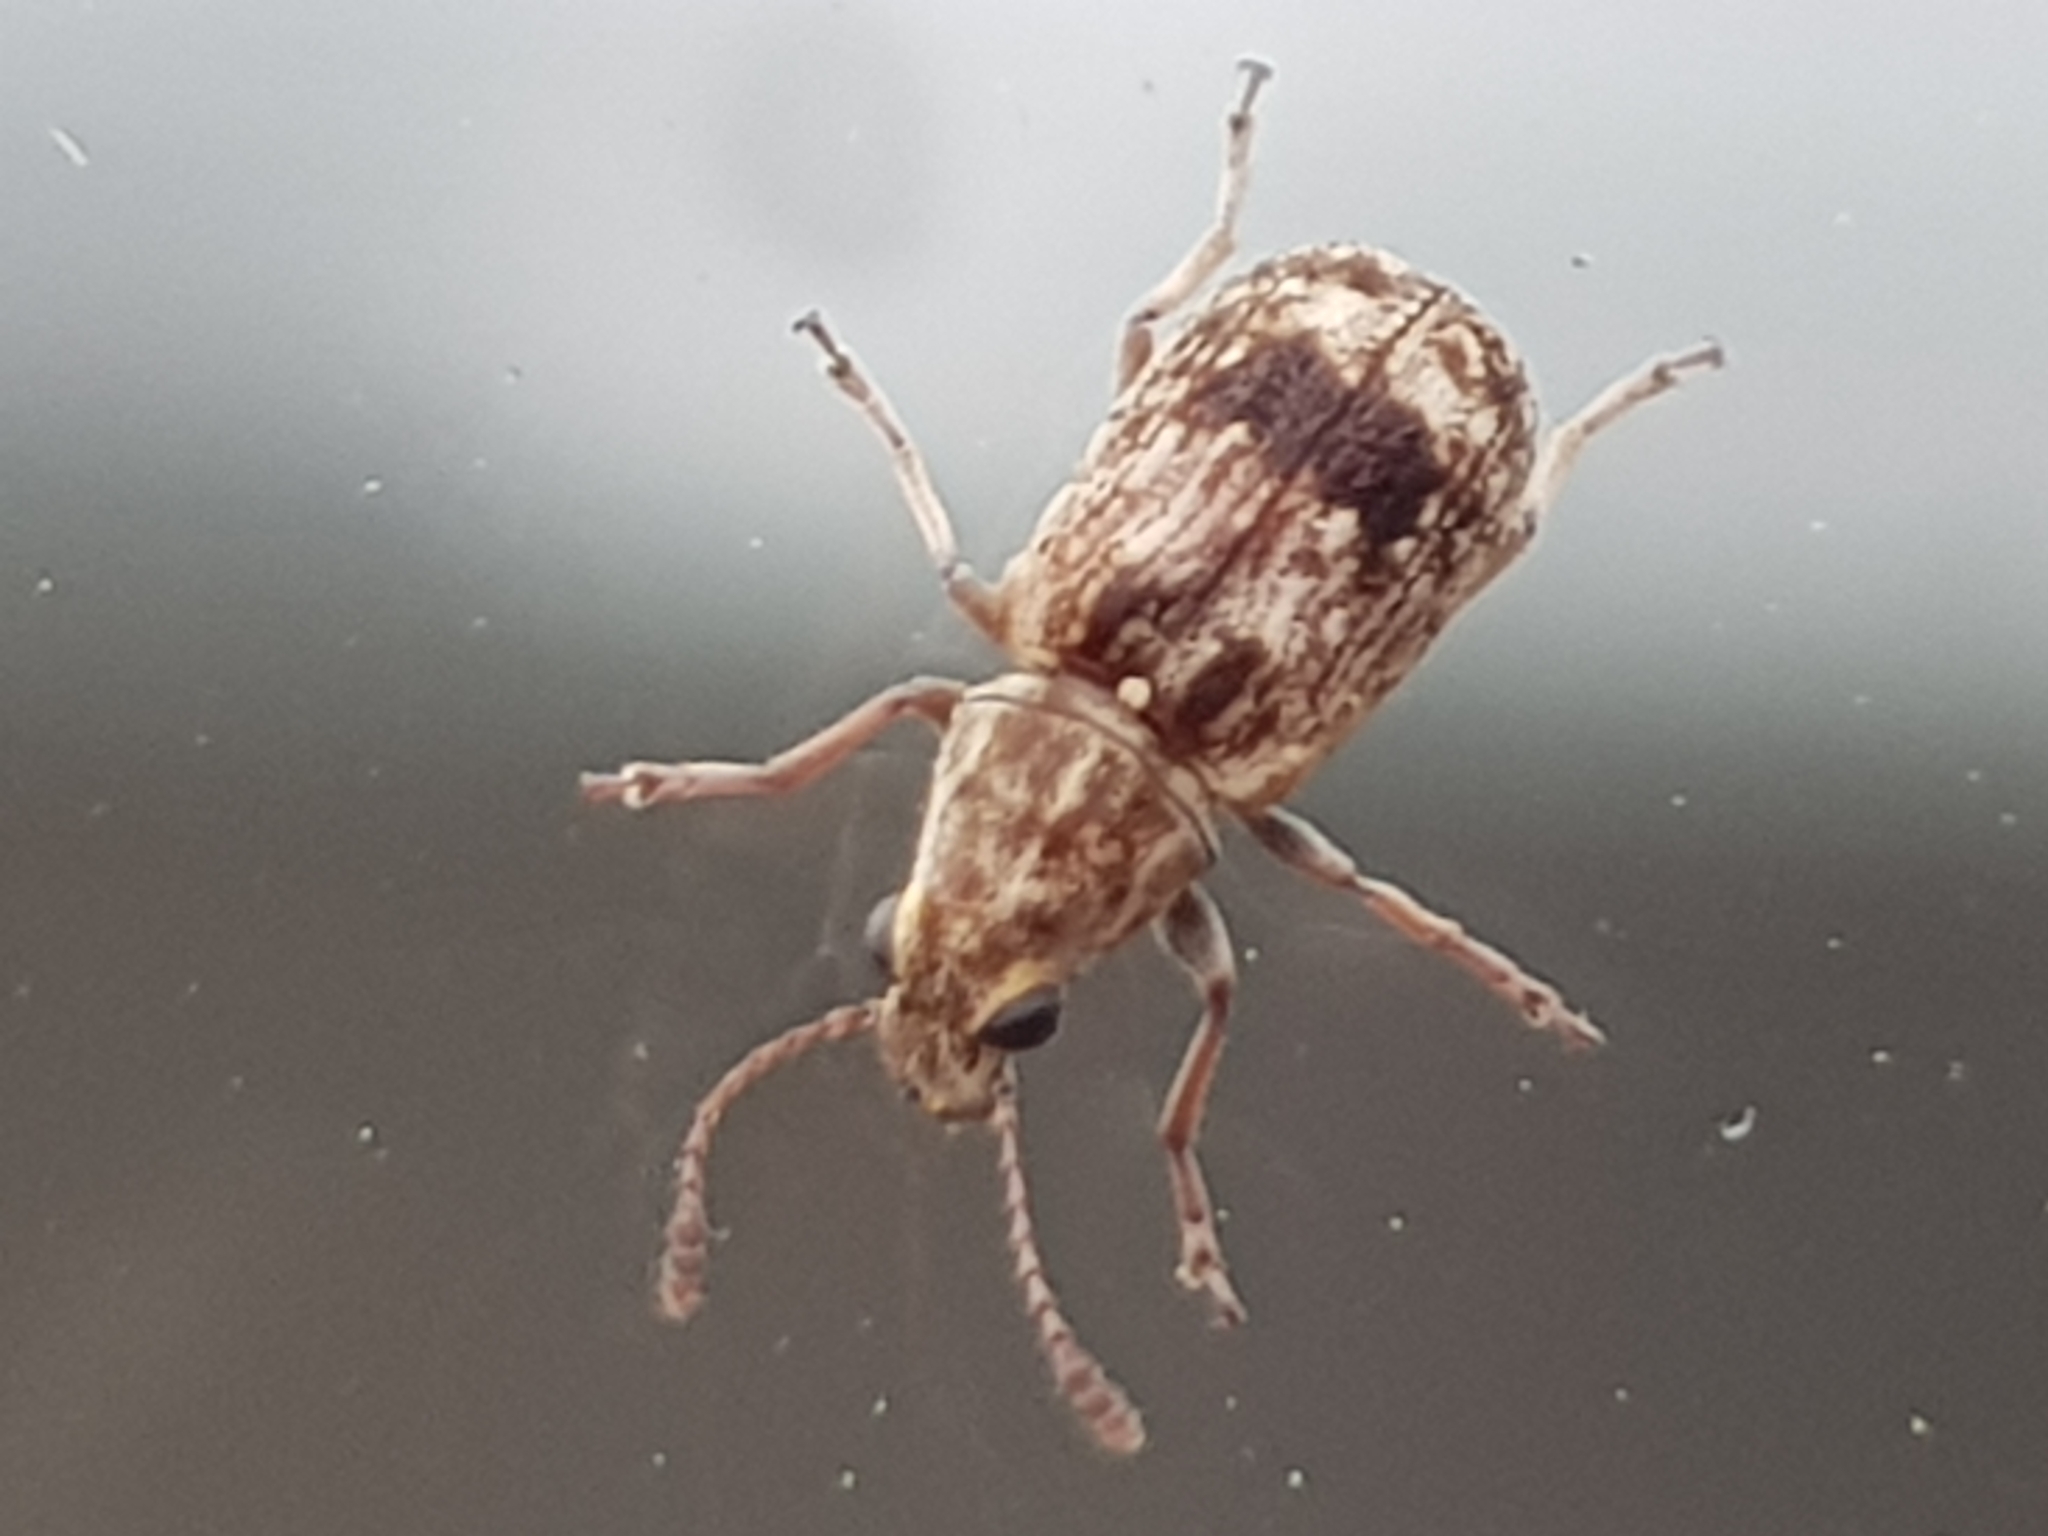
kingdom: Animalia
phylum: Arthropoda
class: Insecta
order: Coleoptera
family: Anthribidae
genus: Cacephatus
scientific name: Cacephatus huttoni
